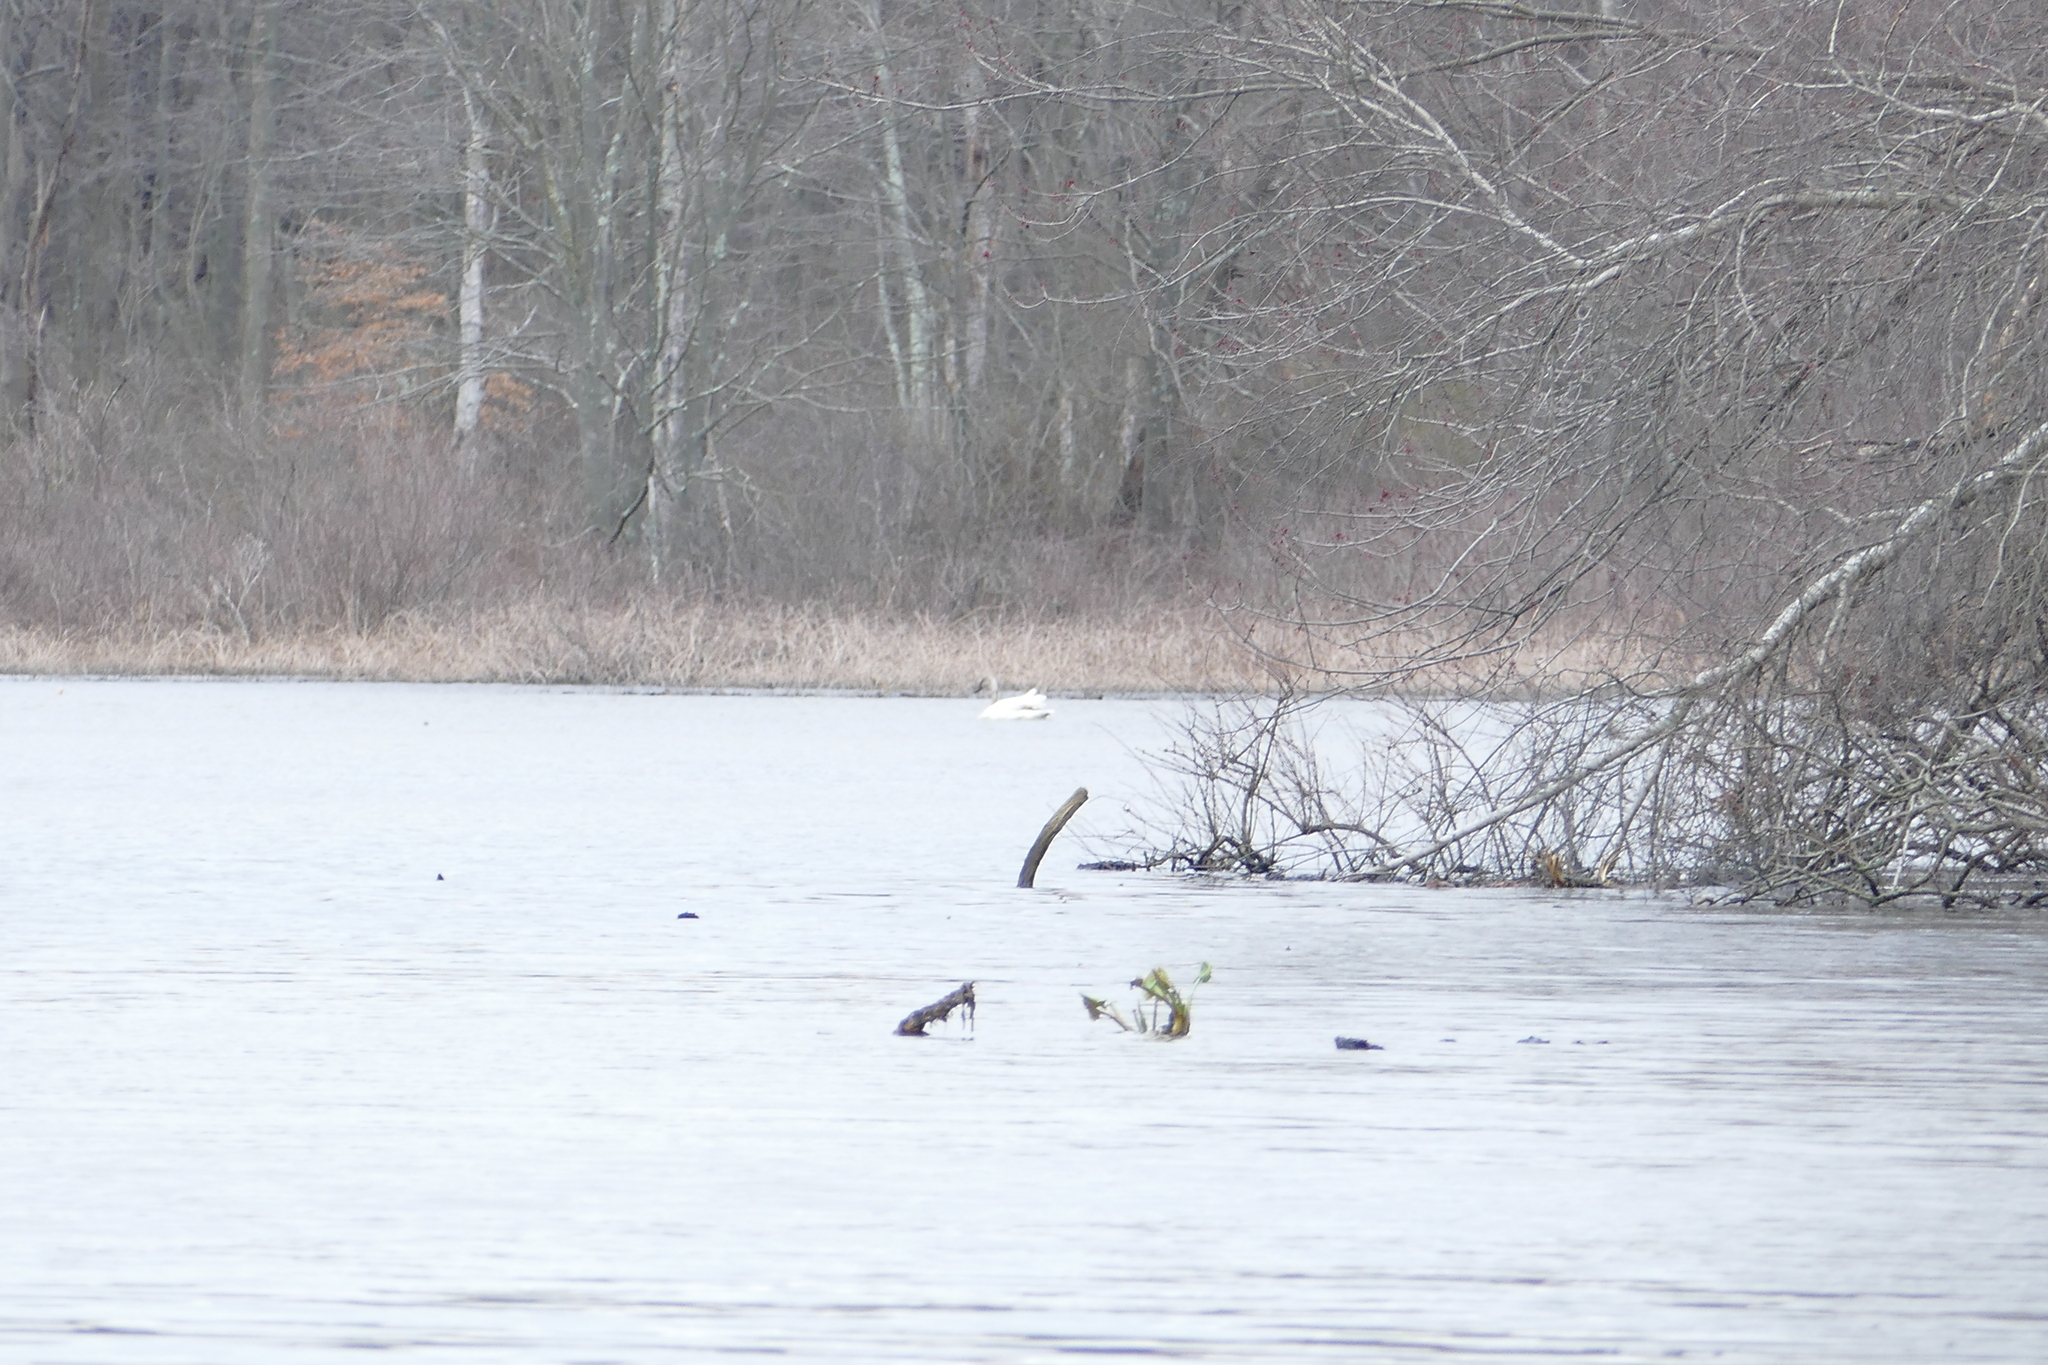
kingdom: Animalia
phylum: Chordata
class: Aves
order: Anseriformes
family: Anatidae
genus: Cygnus
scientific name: Cygnus buccinator
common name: Trumpeter swan
